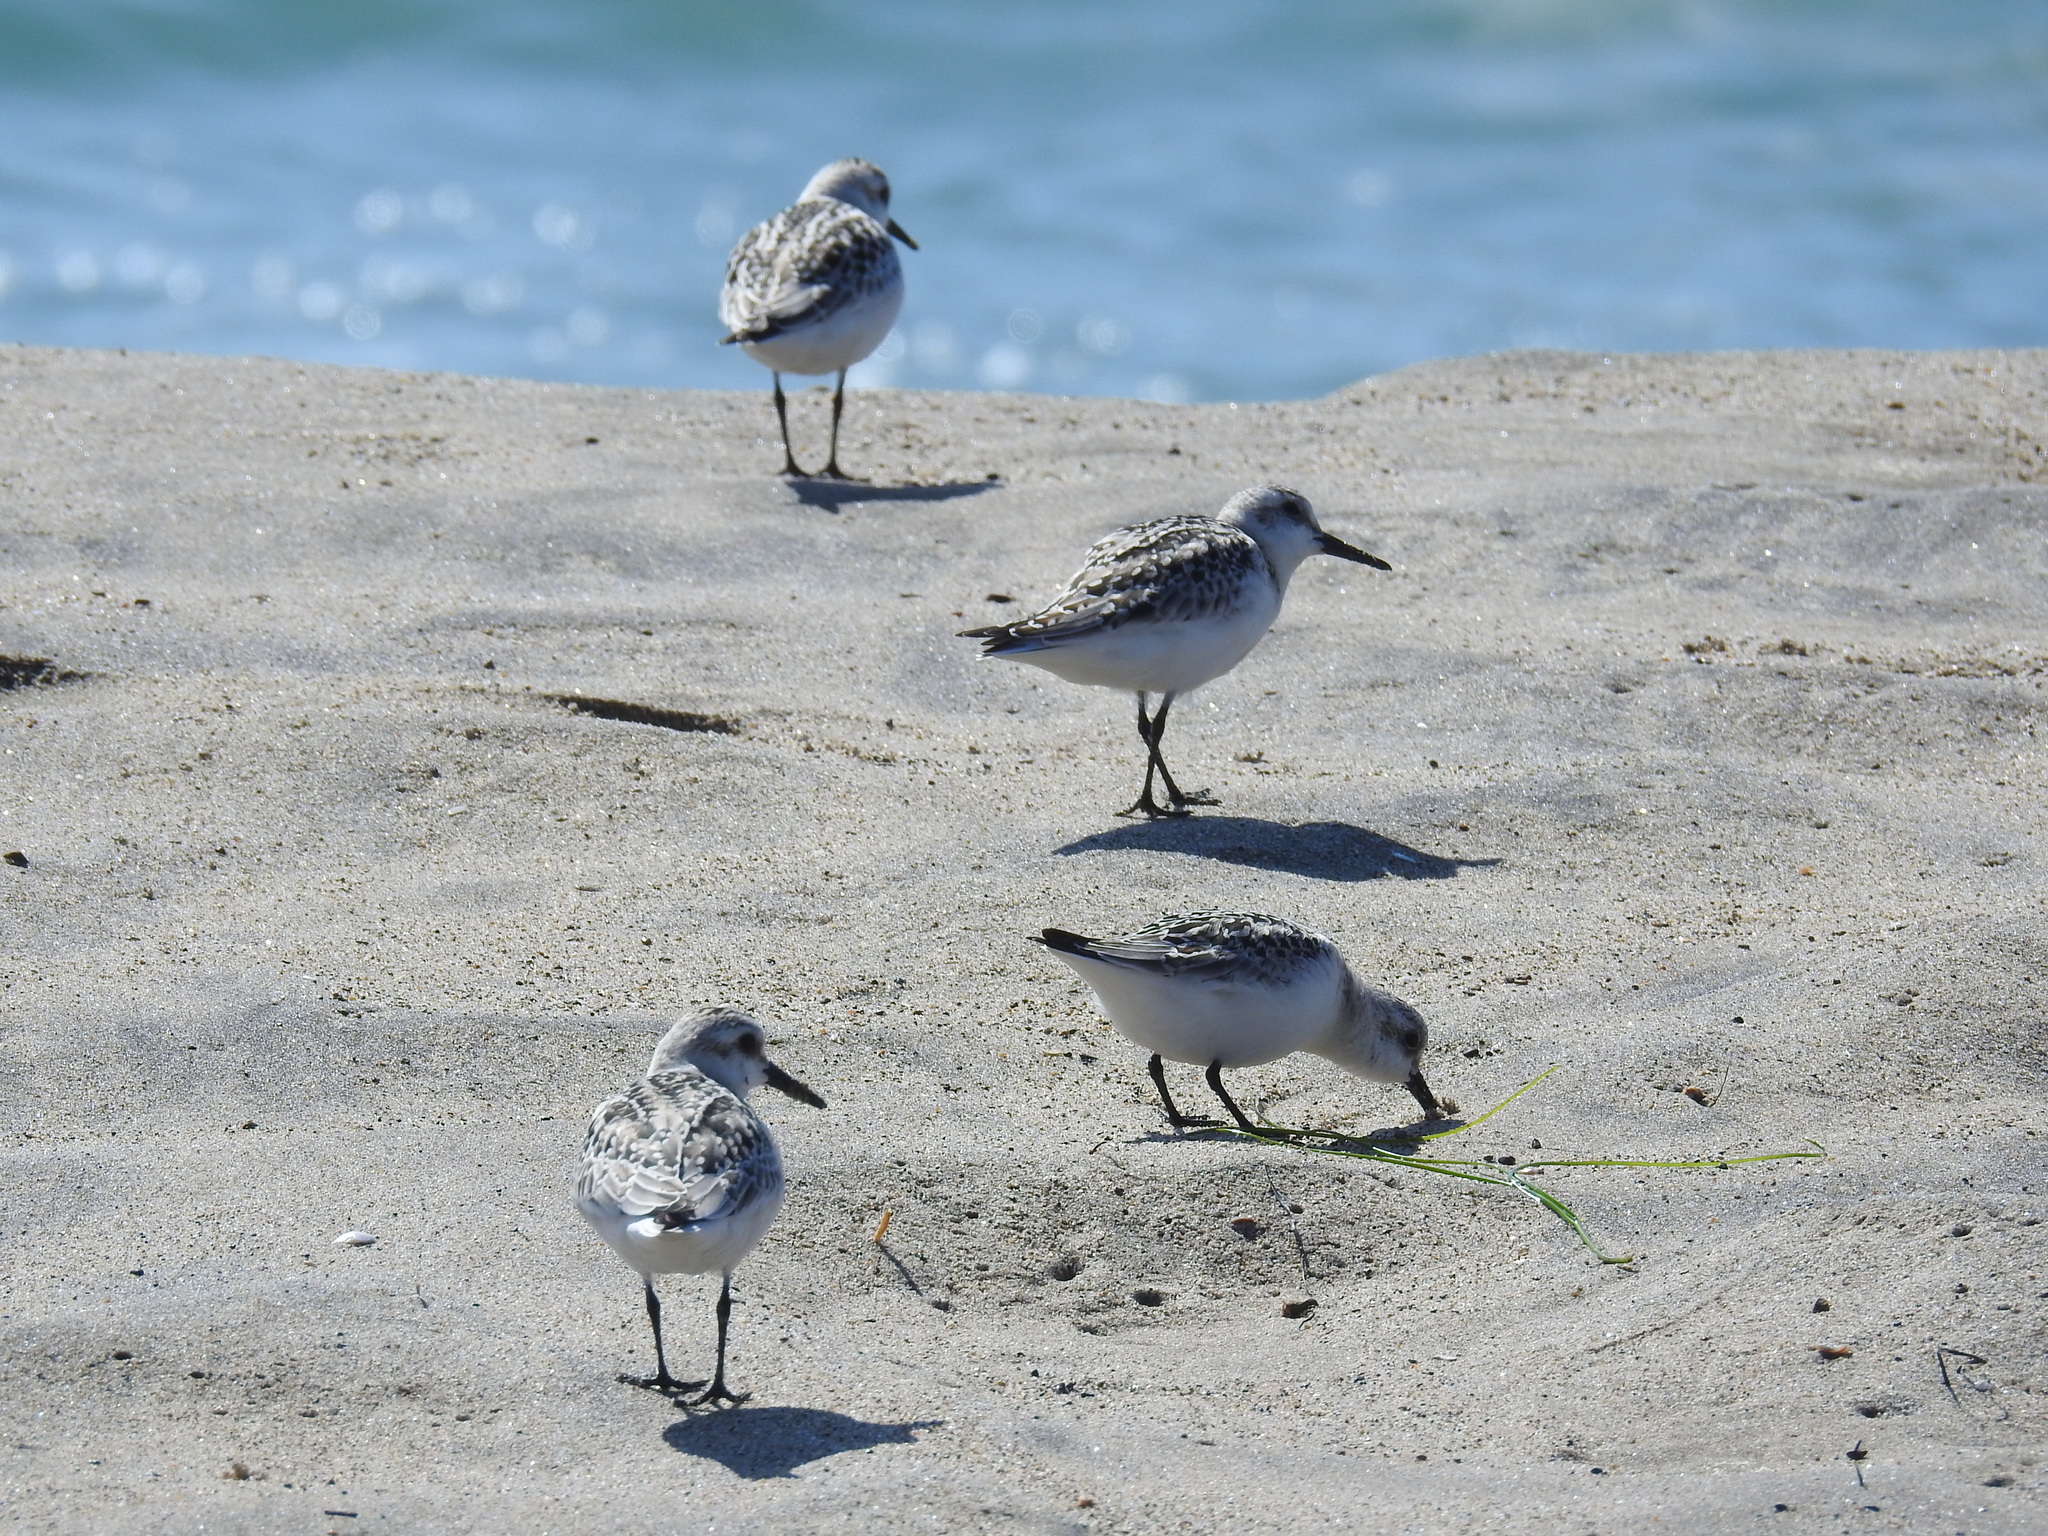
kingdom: Animalia
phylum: Chordata
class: Aves
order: Charadriiformes
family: Scolopacidae
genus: Calidris
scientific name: Calidris alba
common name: Sanderling
